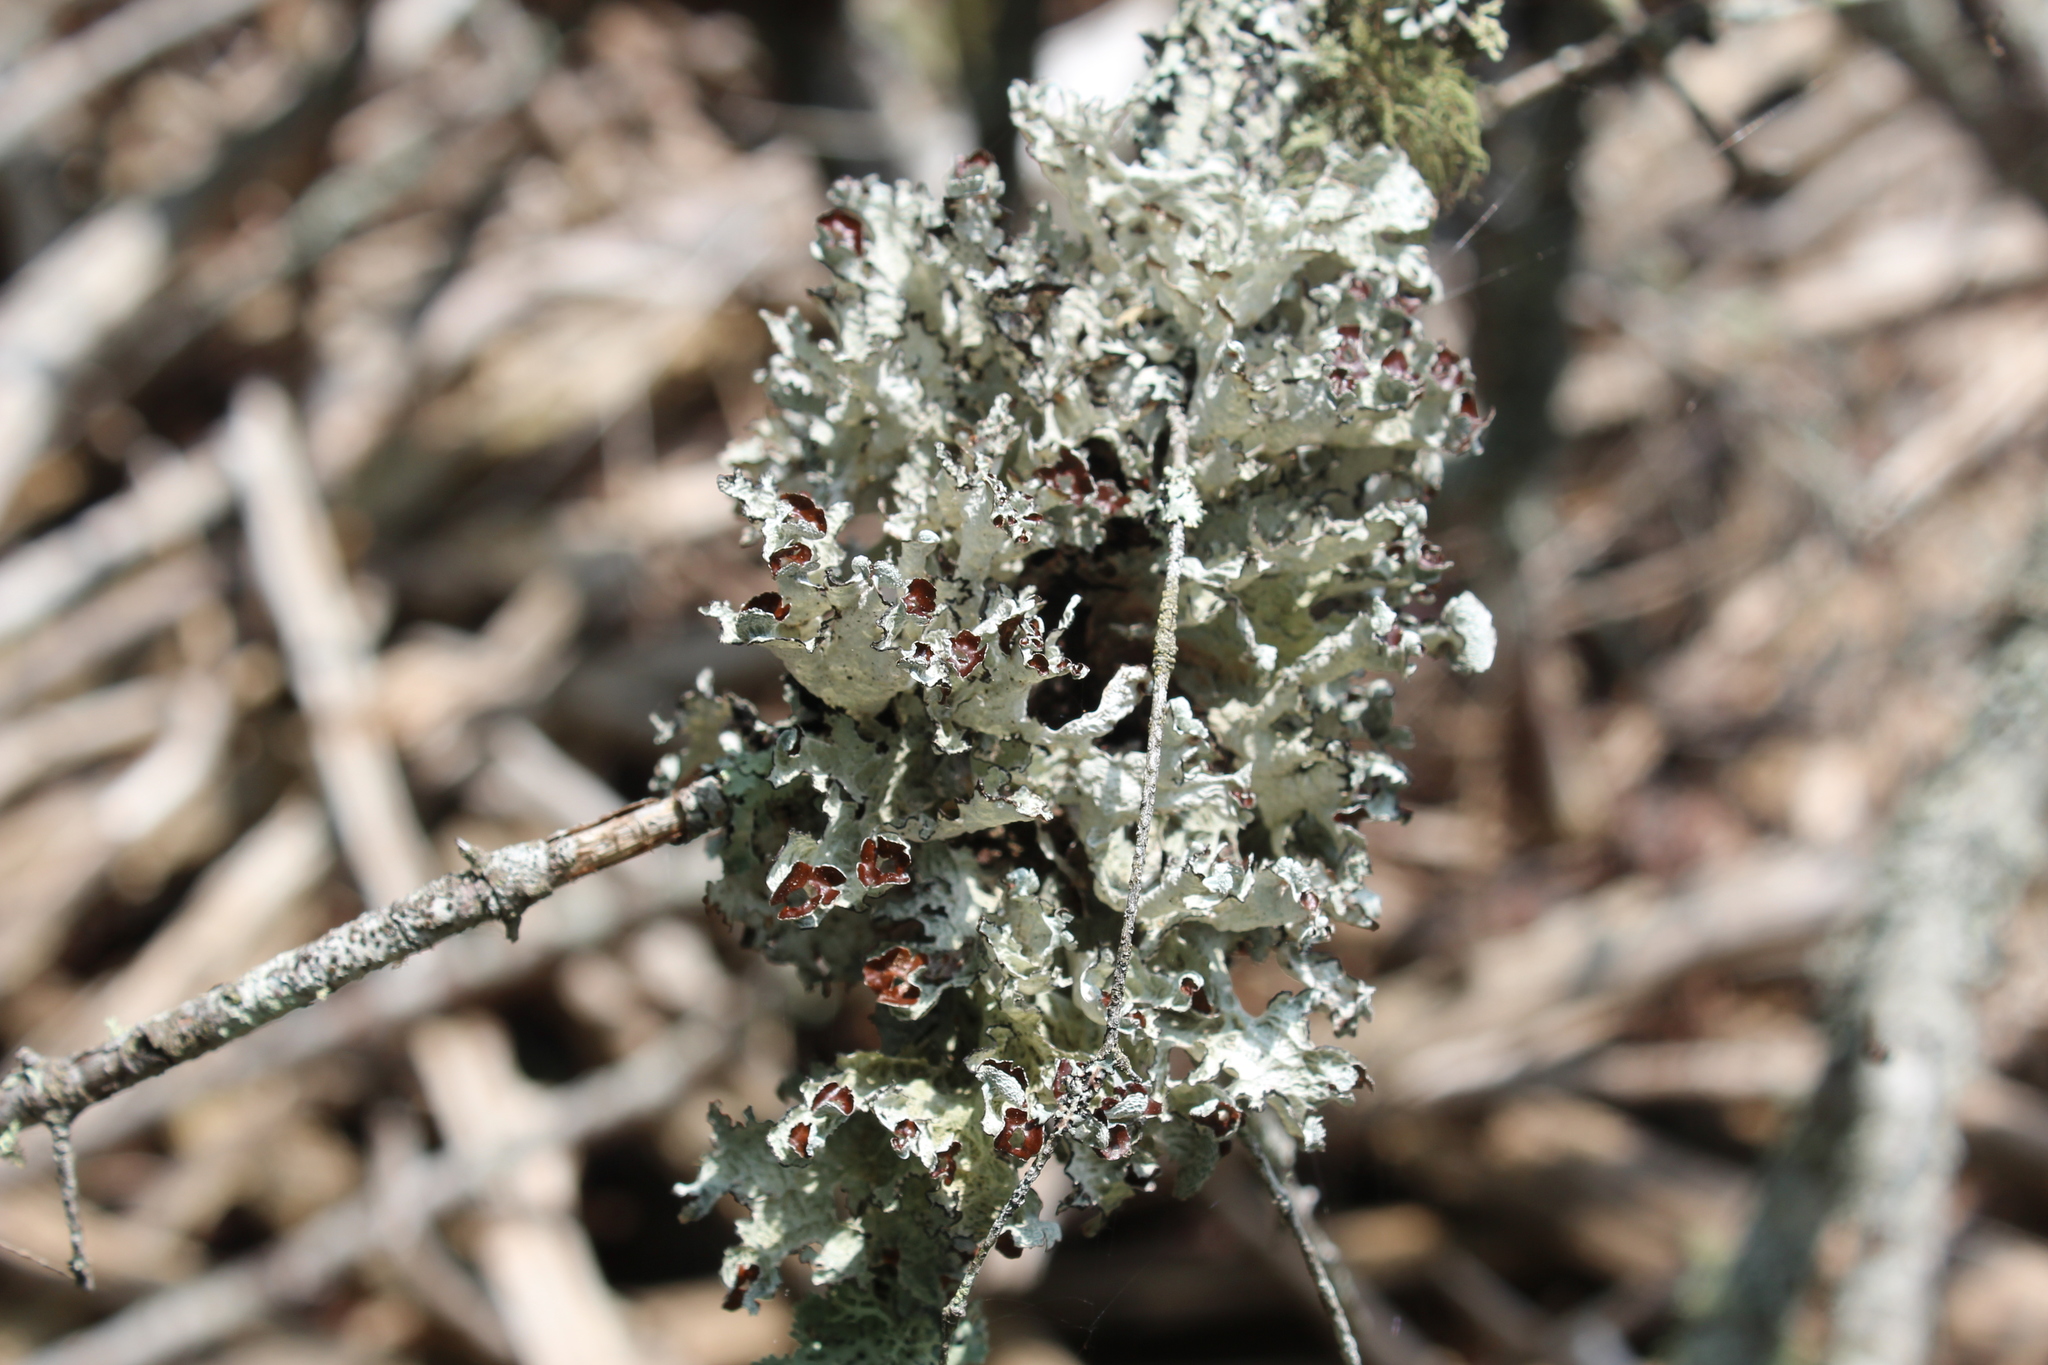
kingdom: Fungi
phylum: Ascomycota
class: Lecanoromycetes
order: Lecanorales
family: Parmeliaceae
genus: Platismatia
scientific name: Platismatia tuckermanii
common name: Crumpled rag lichen
